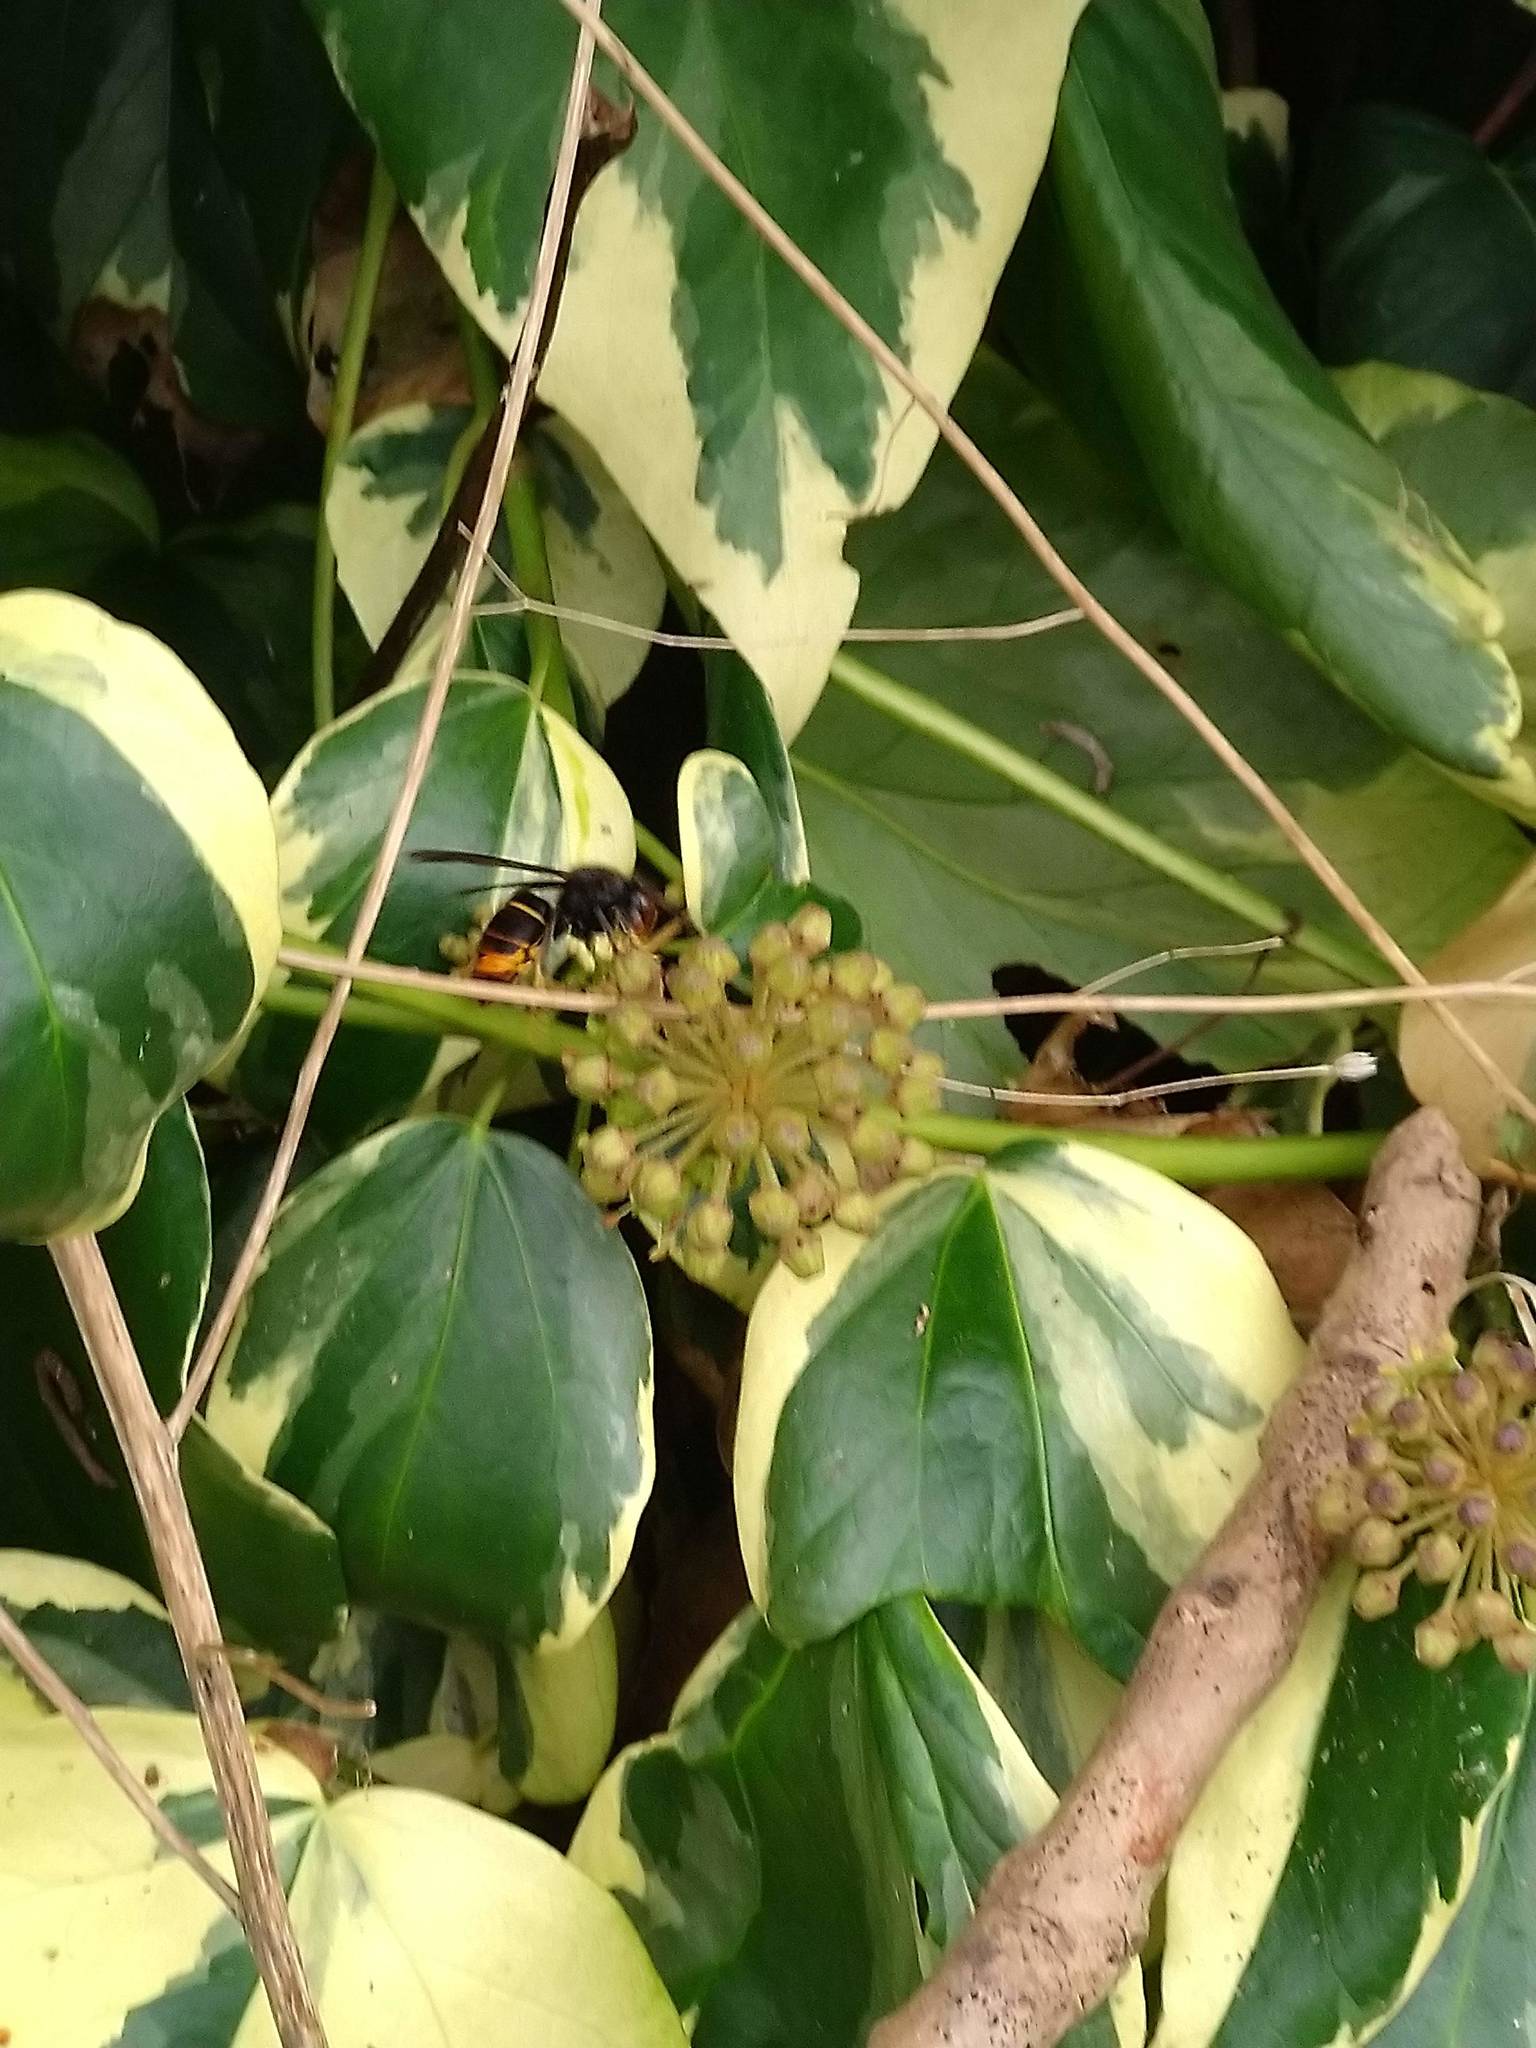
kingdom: Animalia
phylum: Arthropoda
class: Insecta
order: Hymenoptera
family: Vespidae
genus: Vespa
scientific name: Vespa velutina
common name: Asian hornet
